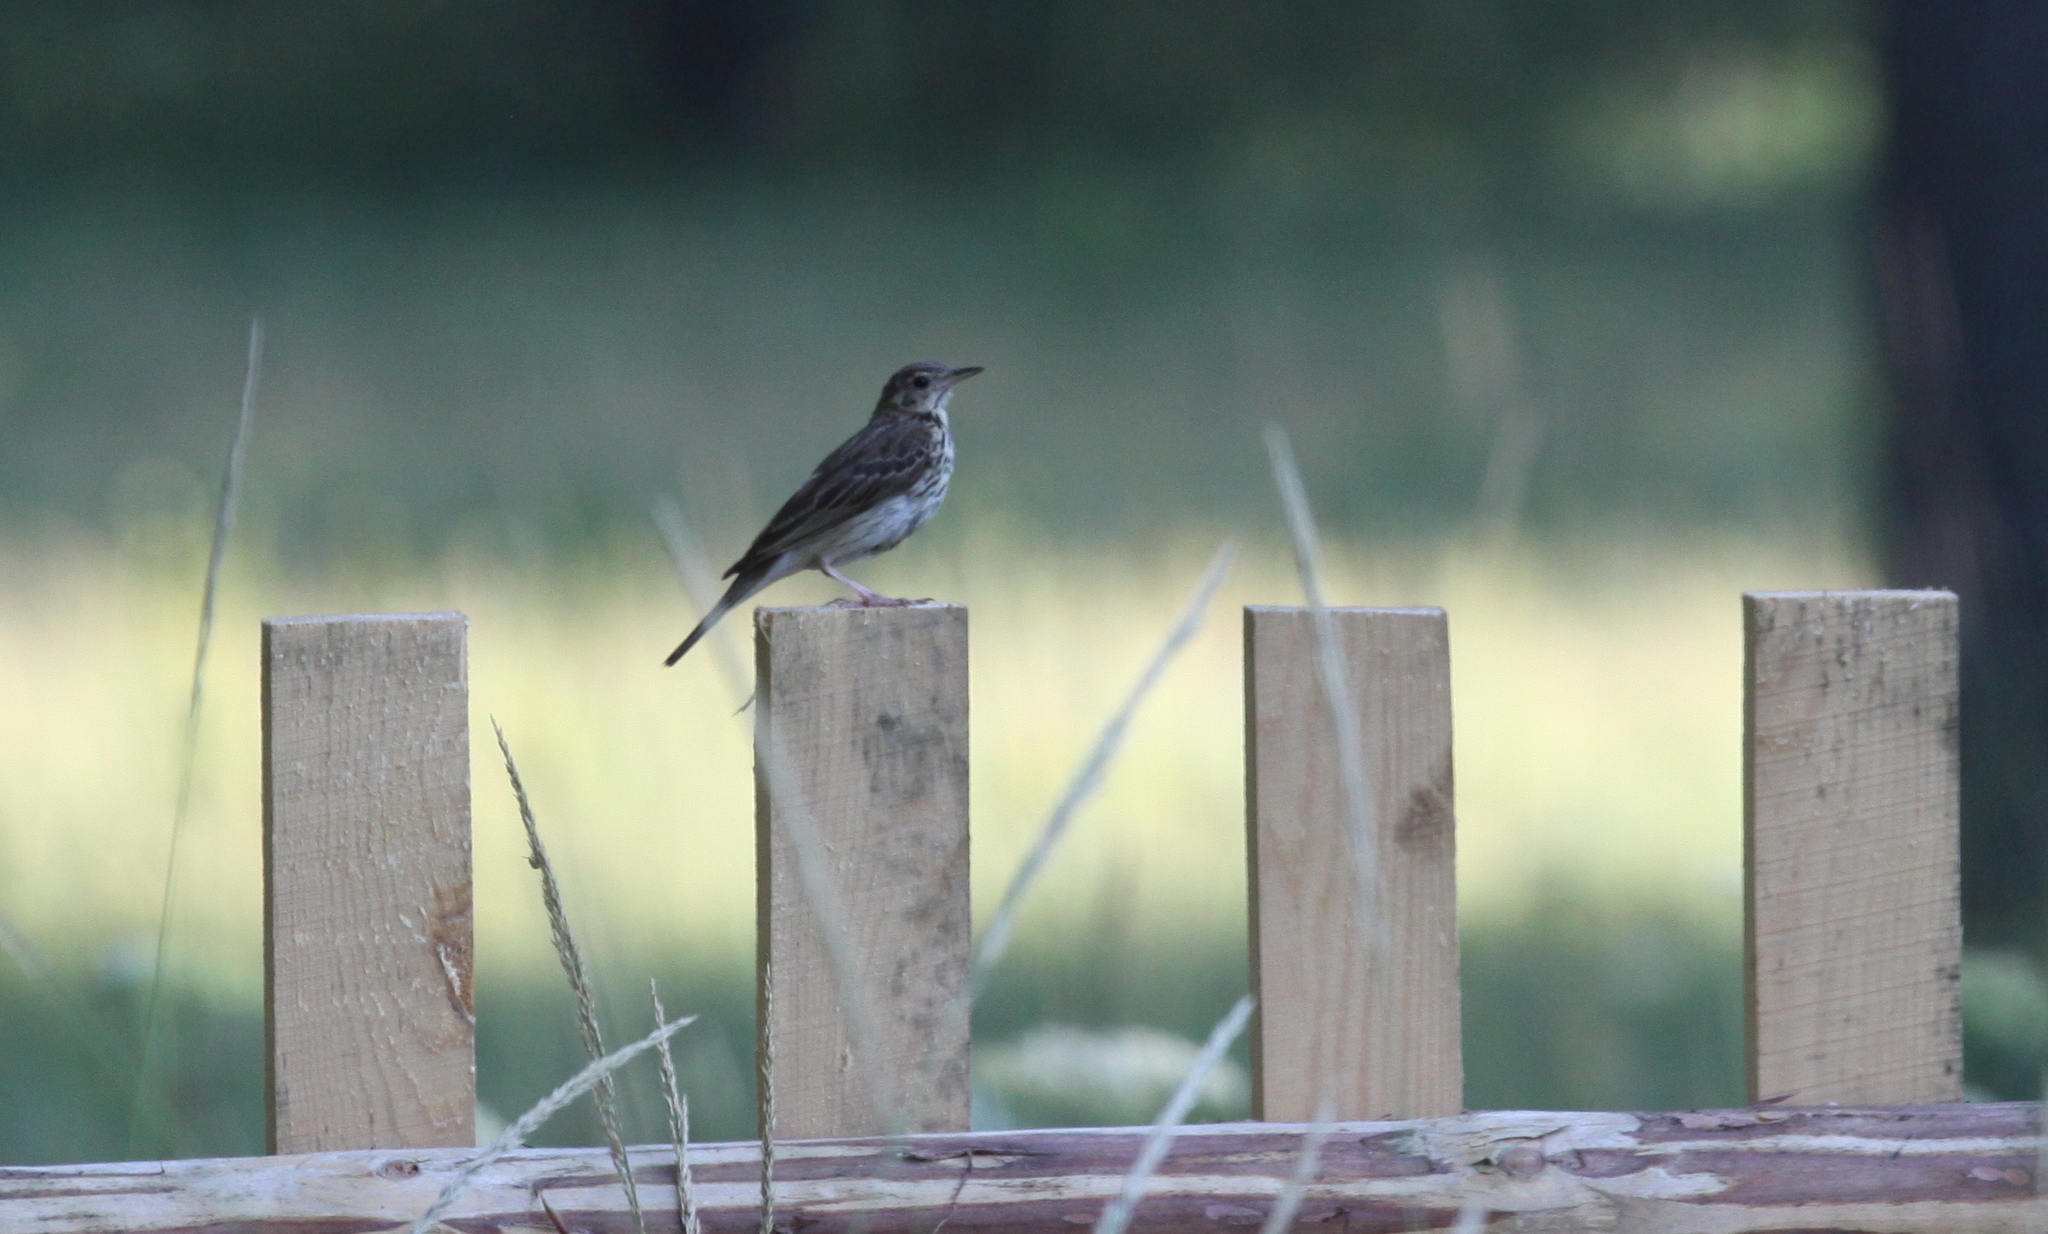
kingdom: Animalia
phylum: Chordata
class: Aves
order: Passeriformes
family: Motacillidae
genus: Anthus
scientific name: Anthus trivialis
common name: Tree pipit
